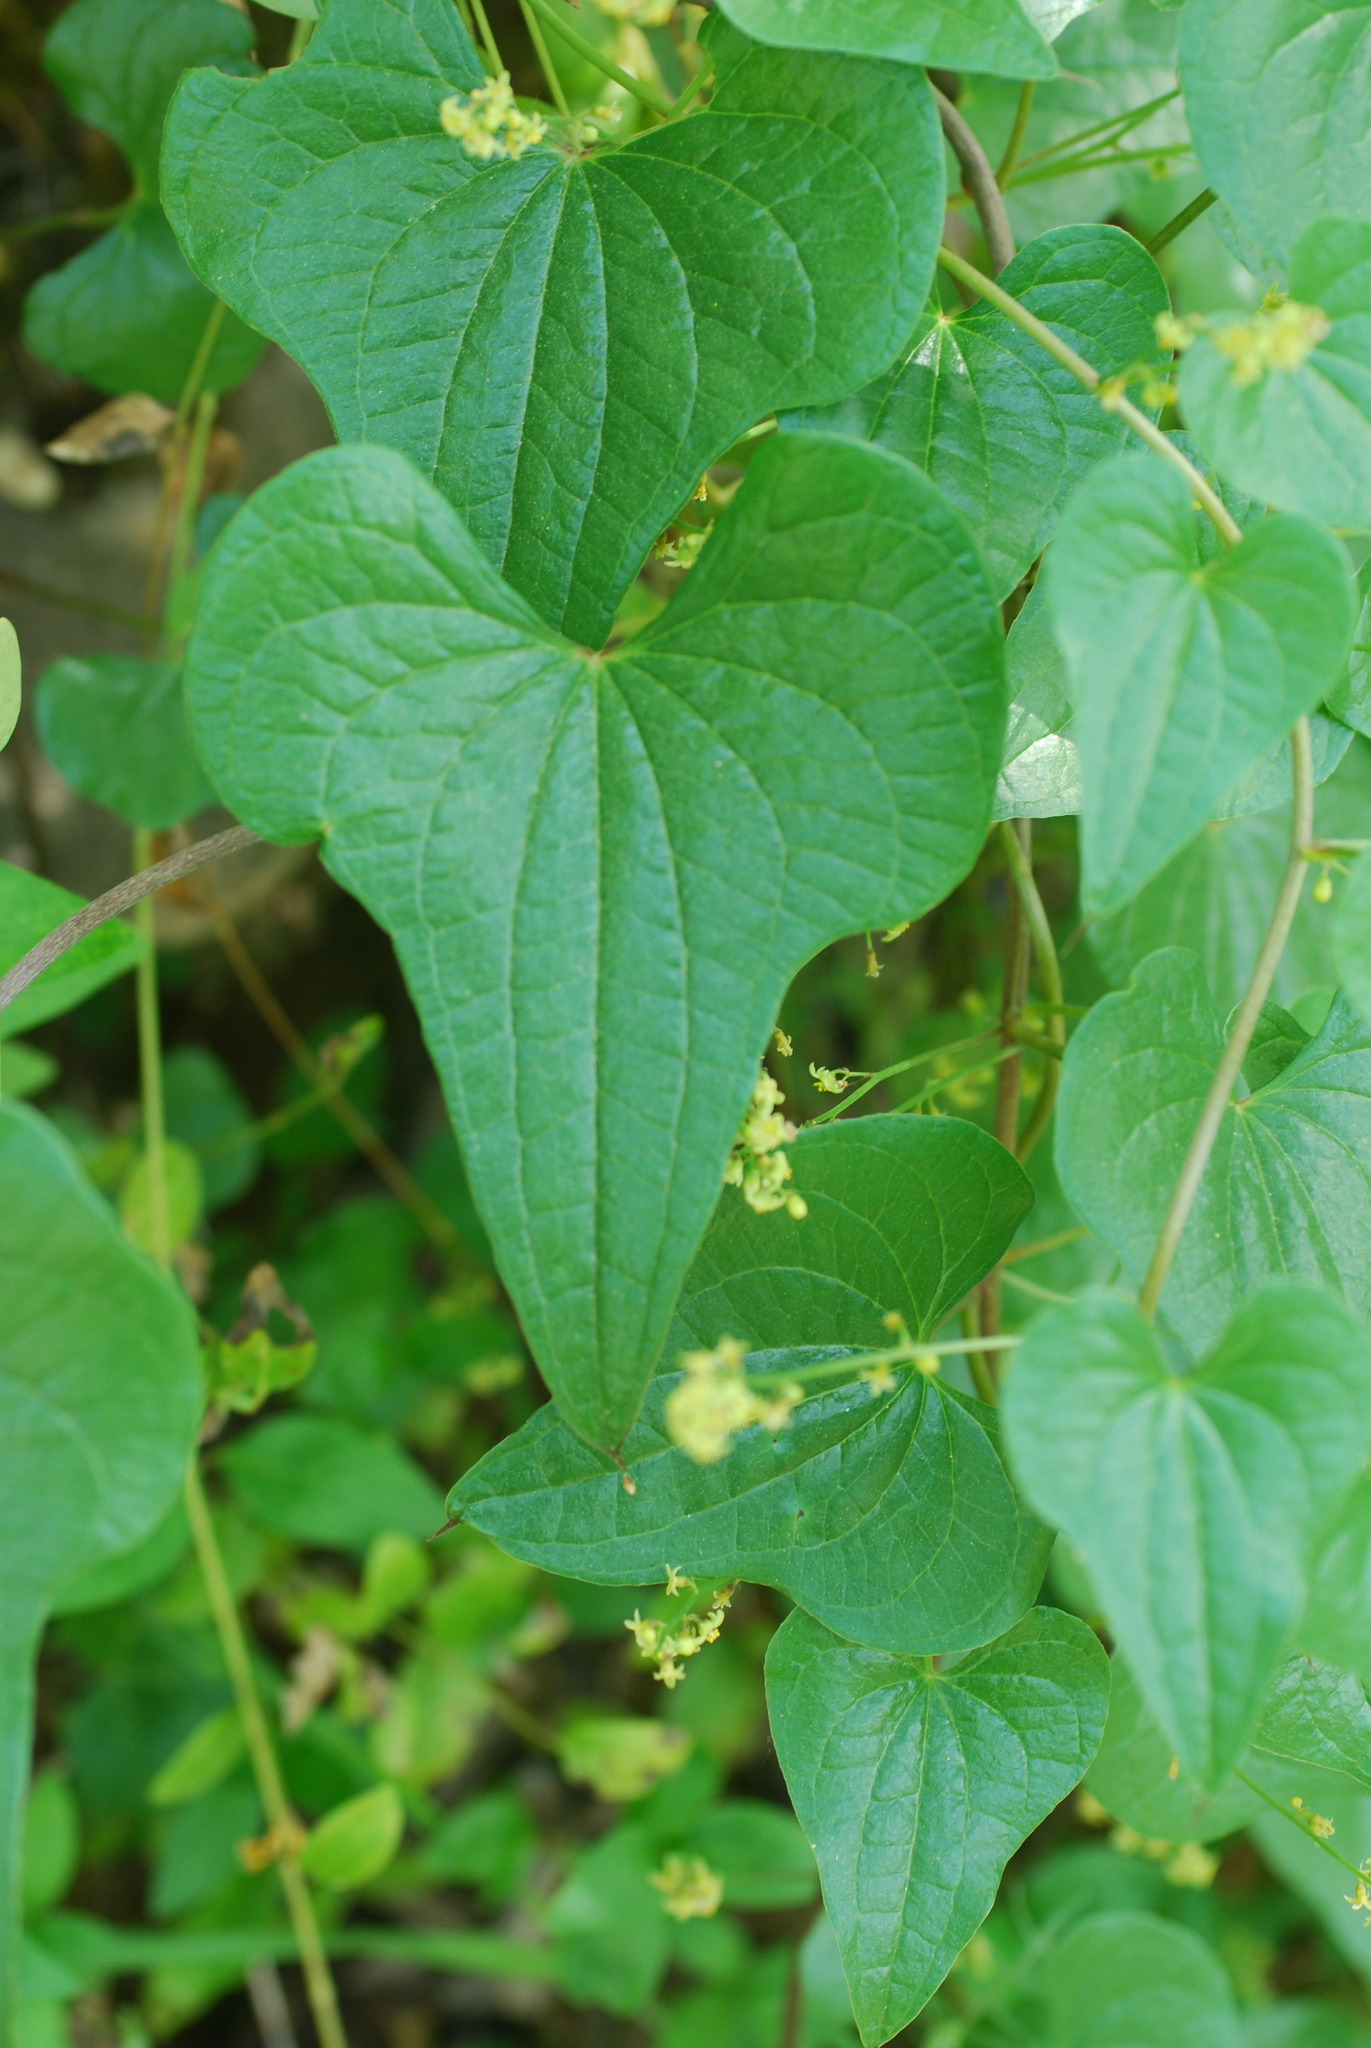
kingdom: Plantae
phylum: Tracheophyta
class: Liliopsida
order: Dioscoreales
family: Dioscoreaceae
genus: Dioscorea
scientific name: Dioscorea communis
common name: Black-bindweed
